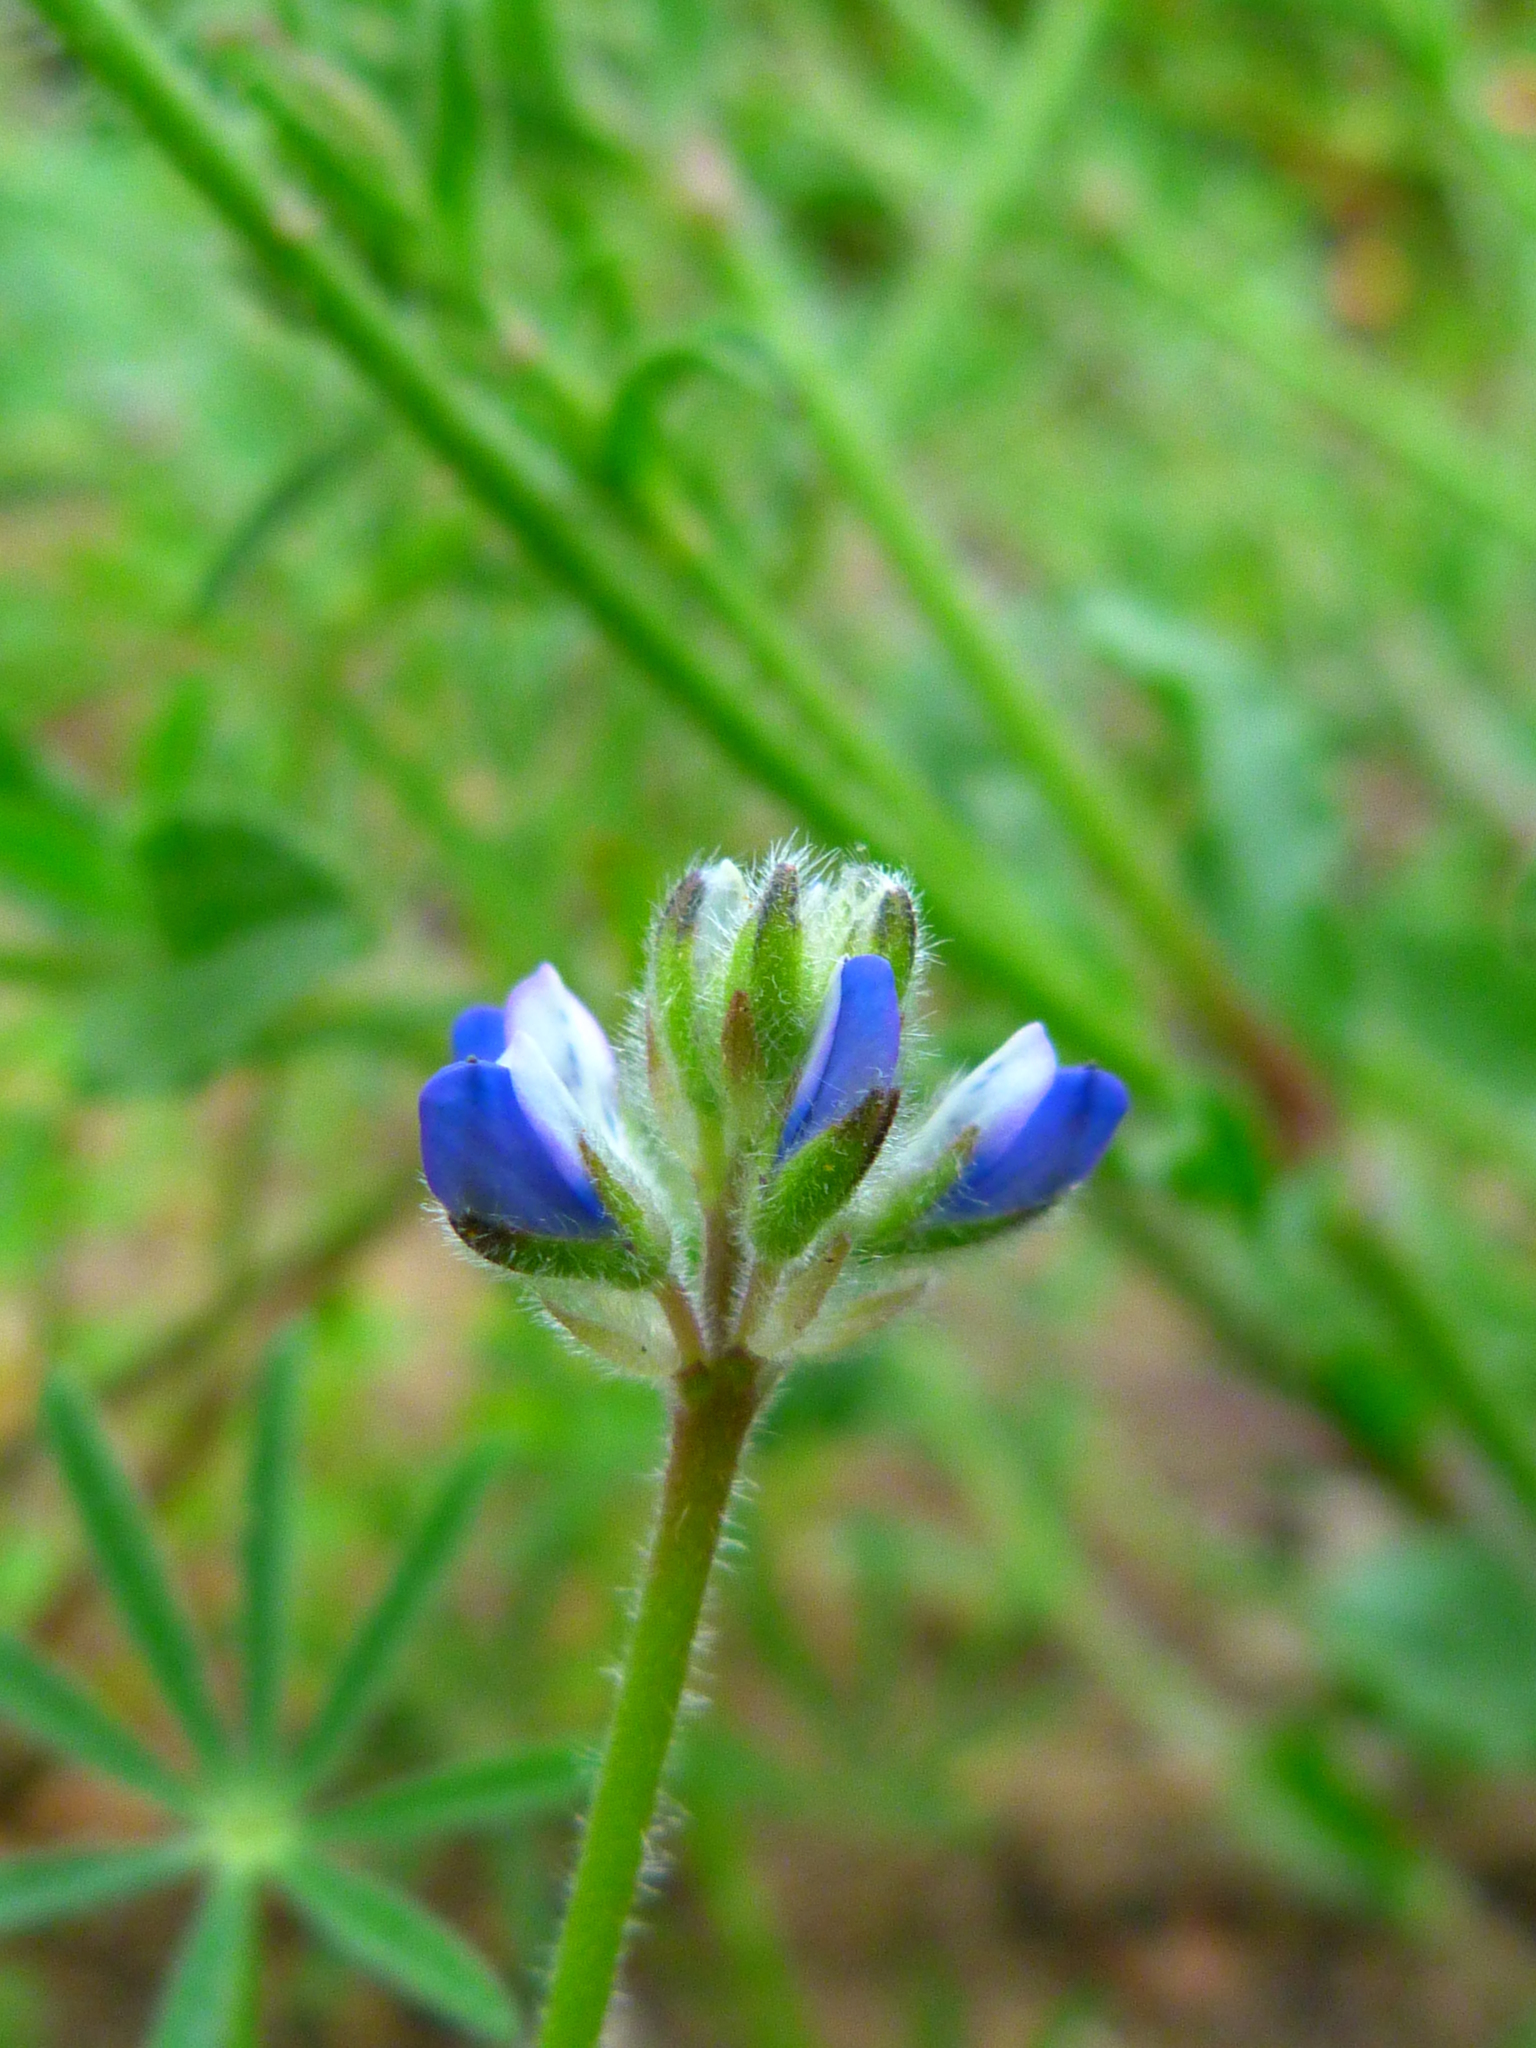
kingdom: Plantae
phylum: Tracheophyta
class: Magnoliopsida
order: Fabales
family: Fabaceae
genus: Lupinus
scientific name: Lupinus bicolor
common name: Miniature lupine
